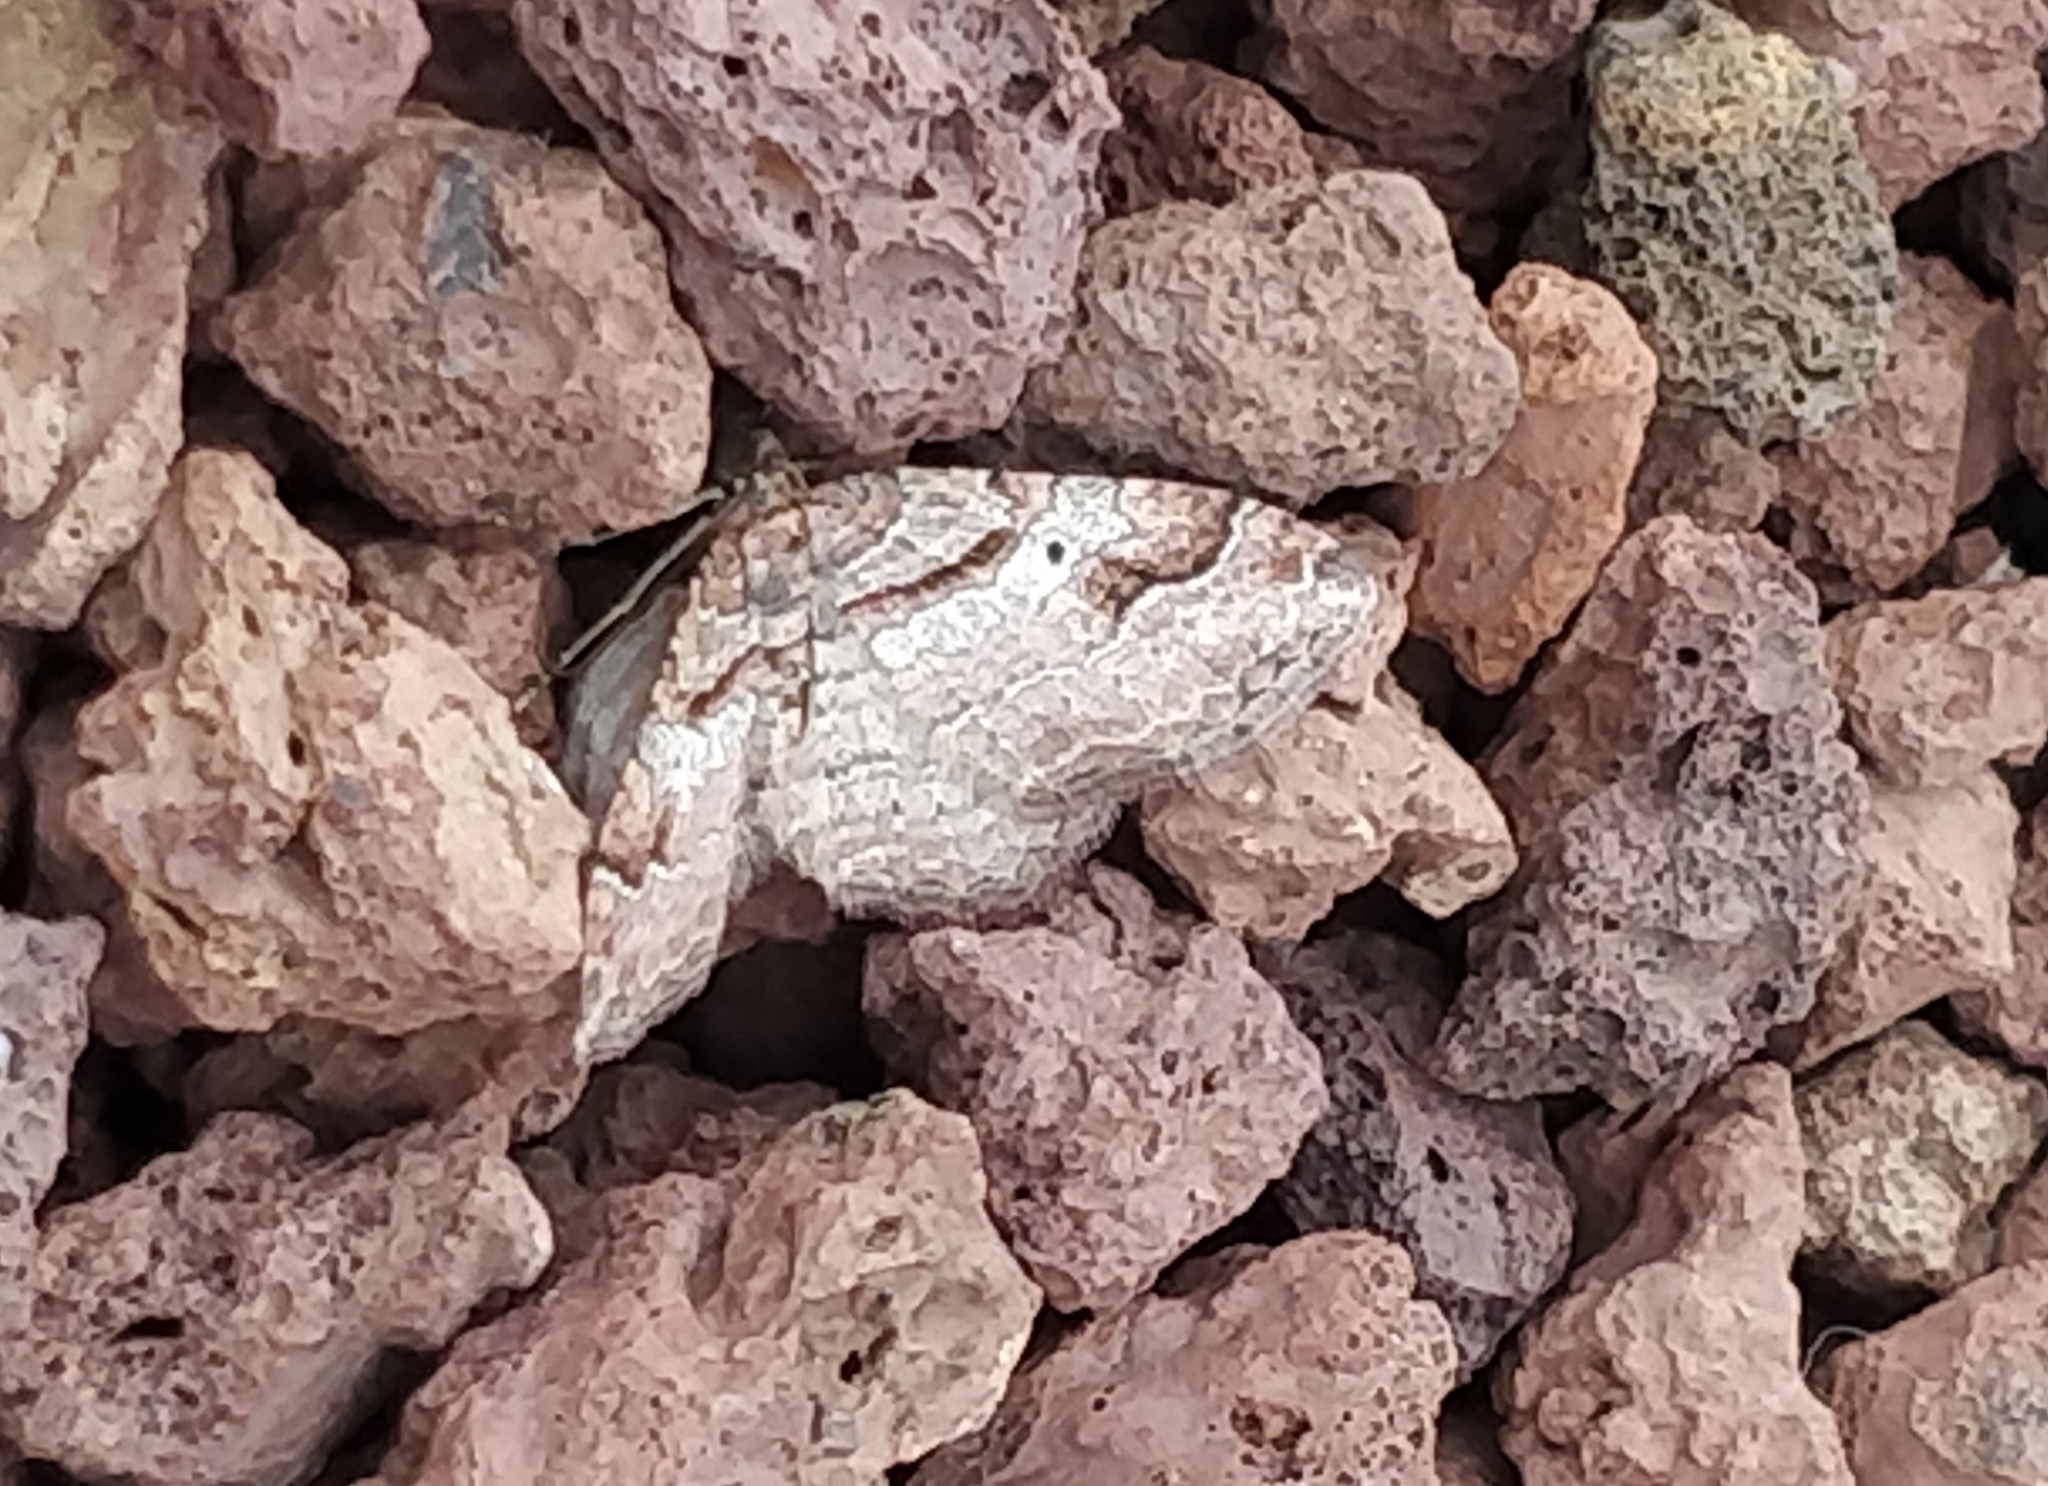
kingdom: Animalia
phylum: Arthropoda
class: Insecta
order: Lepidoptera
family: Geometridae
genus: Costaconvexa
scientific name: Costaconvexa centrostrigaria
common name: Bent-line carpet
